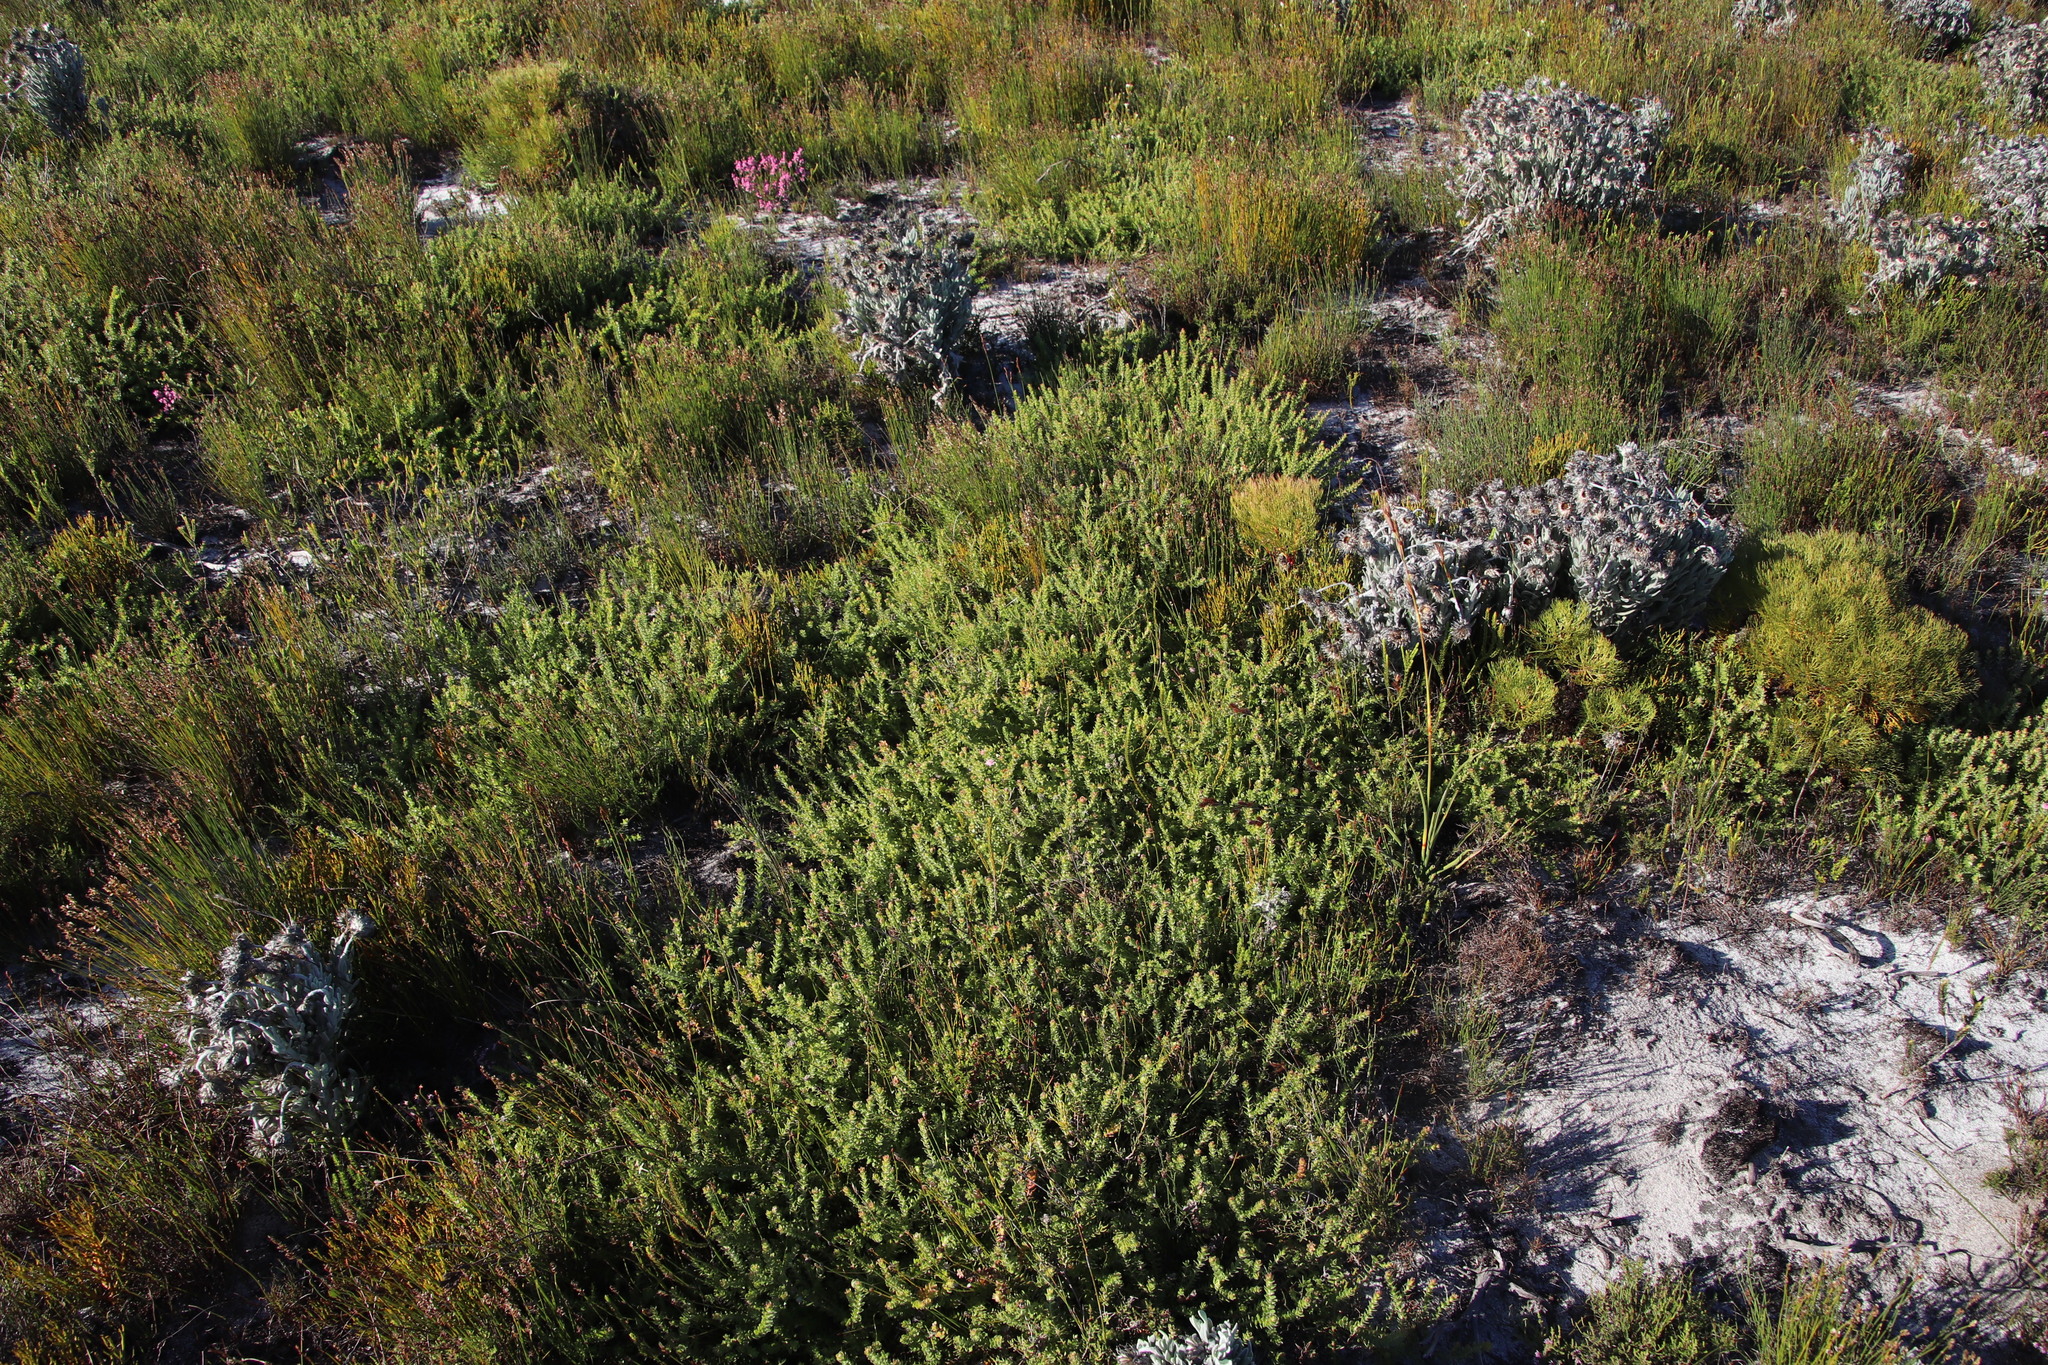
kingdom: Plantae
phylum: Tracheophyta
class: Magnoliopsida
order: Proteales
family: Proteaceae
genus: Diastella
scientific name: Diastella divaricata
